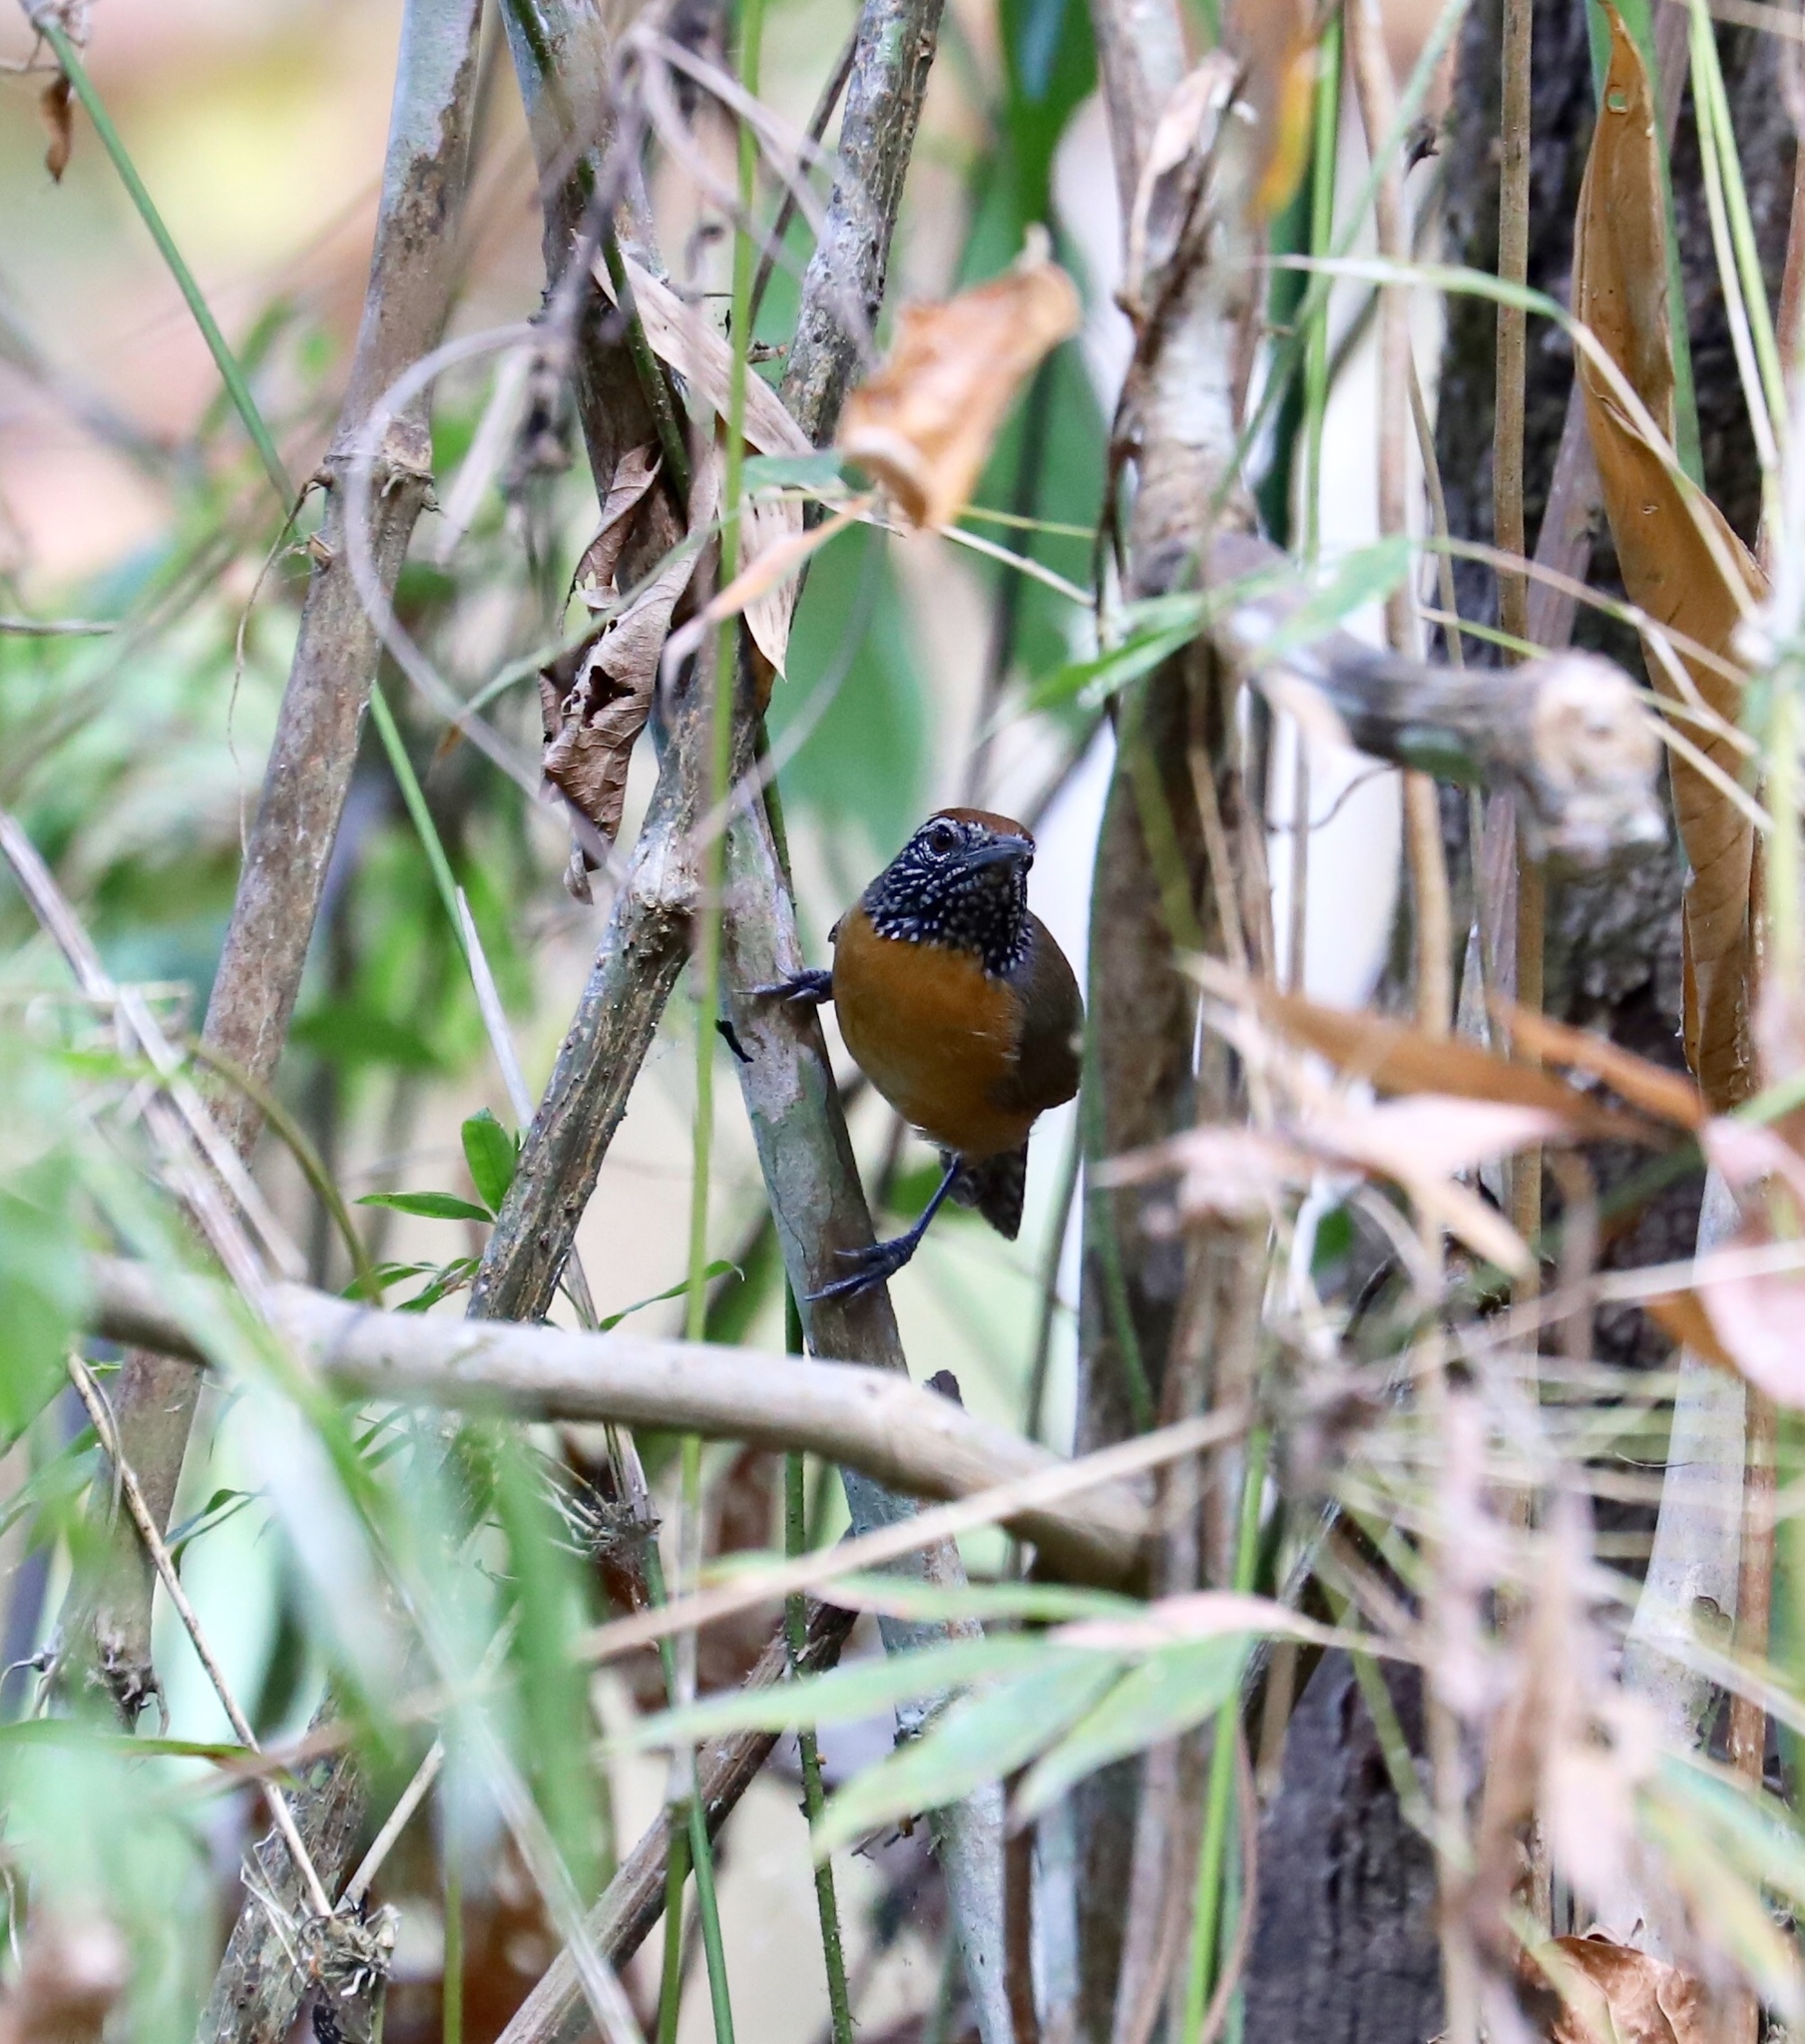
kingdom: Animalia
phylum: Chordata
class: Aves
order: Passeriformes
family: Troglodytidae
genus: Pheugopedius
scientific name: Pheugopedius rutilus
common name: Rufous-breasted wren
